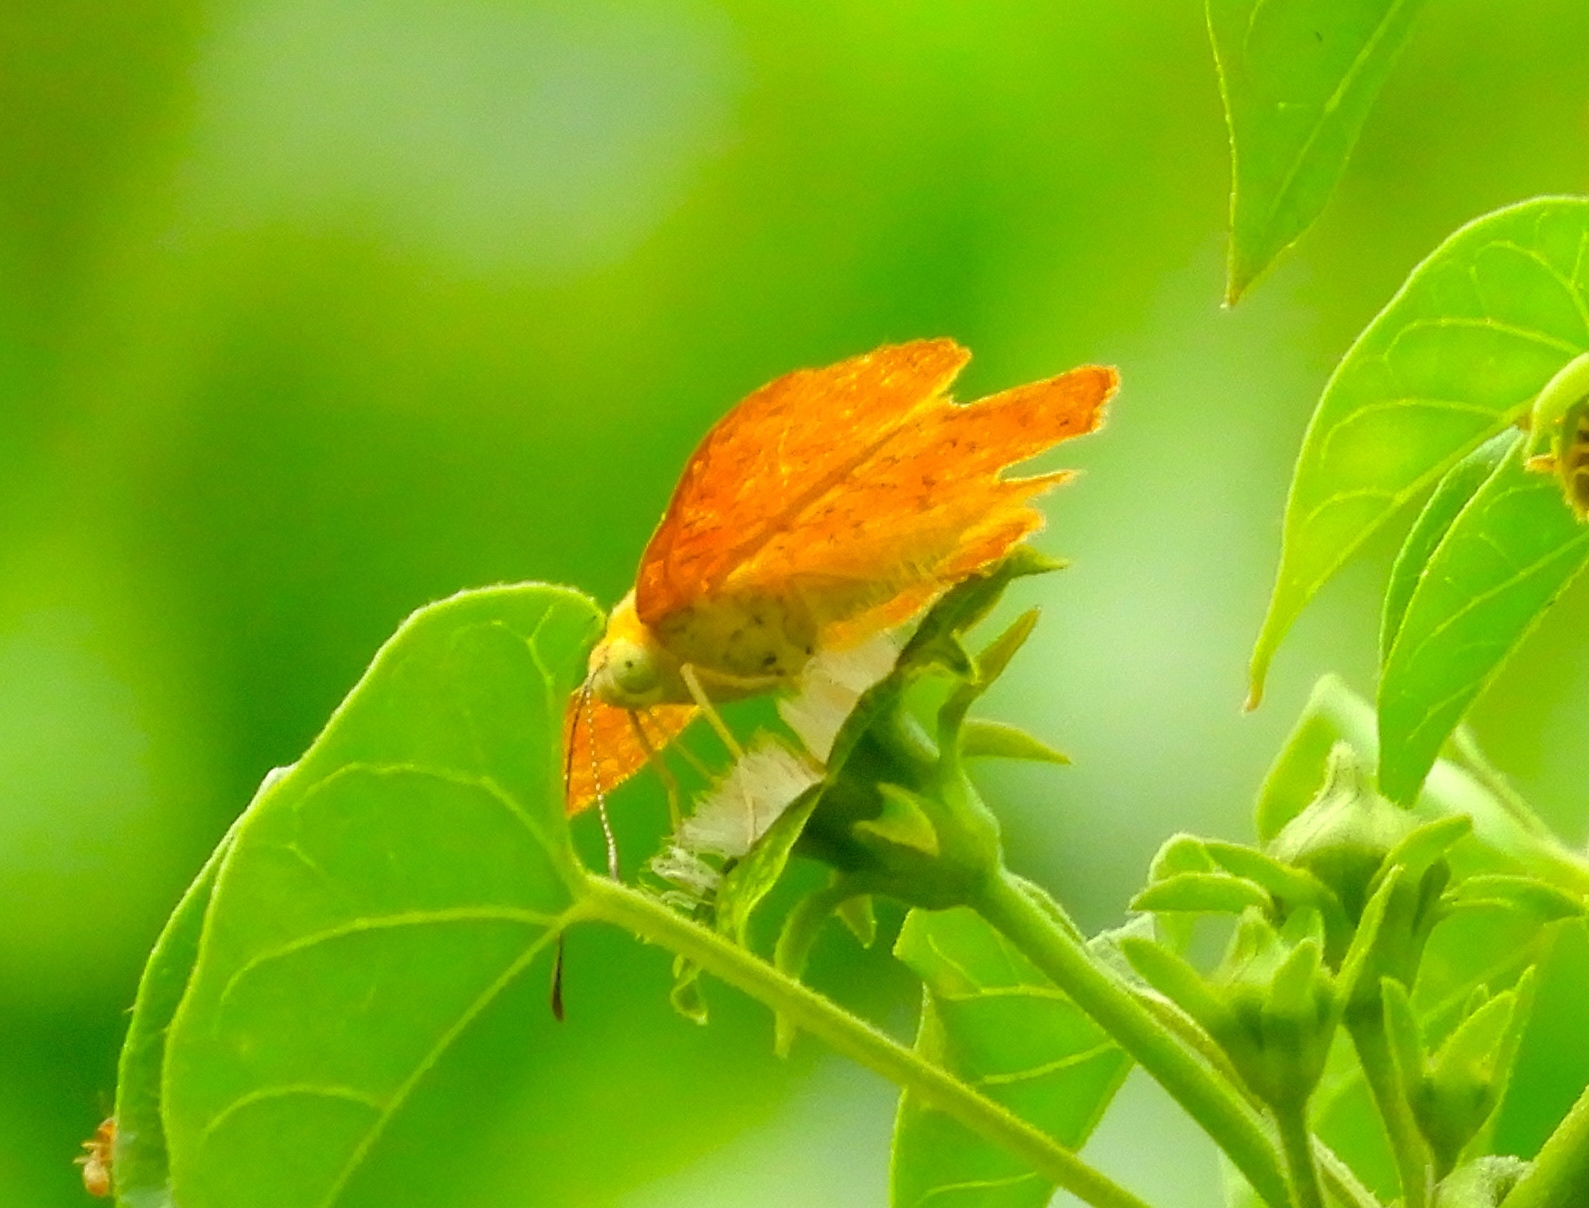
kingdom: Animalia
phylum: Arthropoda
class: Insecta
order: Lepidoptera
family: Lycaenidae
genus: Emesis
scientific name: Emesis
